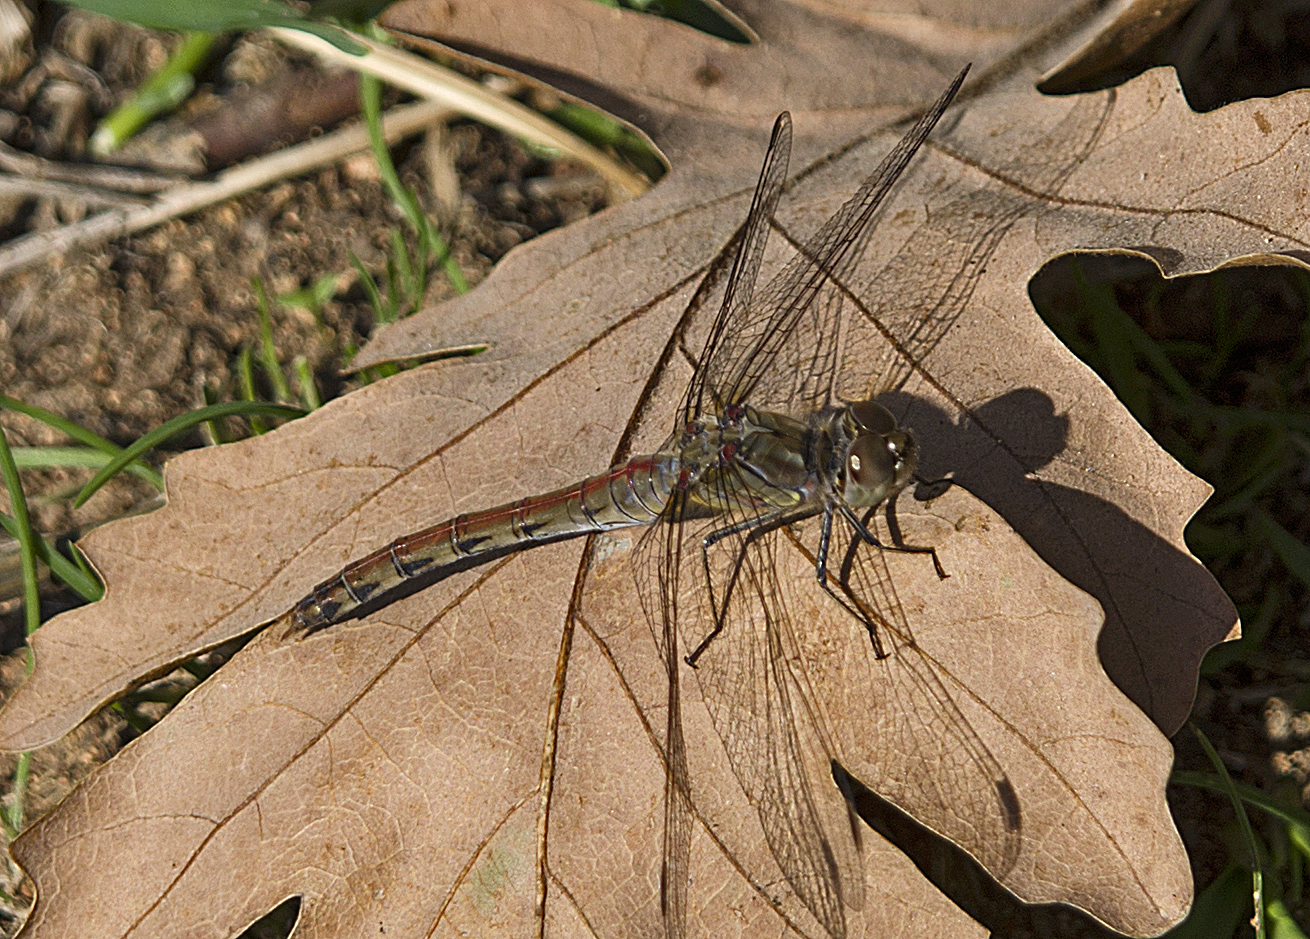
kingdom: Animalia
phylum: Arthropoda
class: Insecta
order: Odonata
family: Libellulidae
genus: Sympetrum
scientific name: Sympetrum striolatum
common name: Common darter
